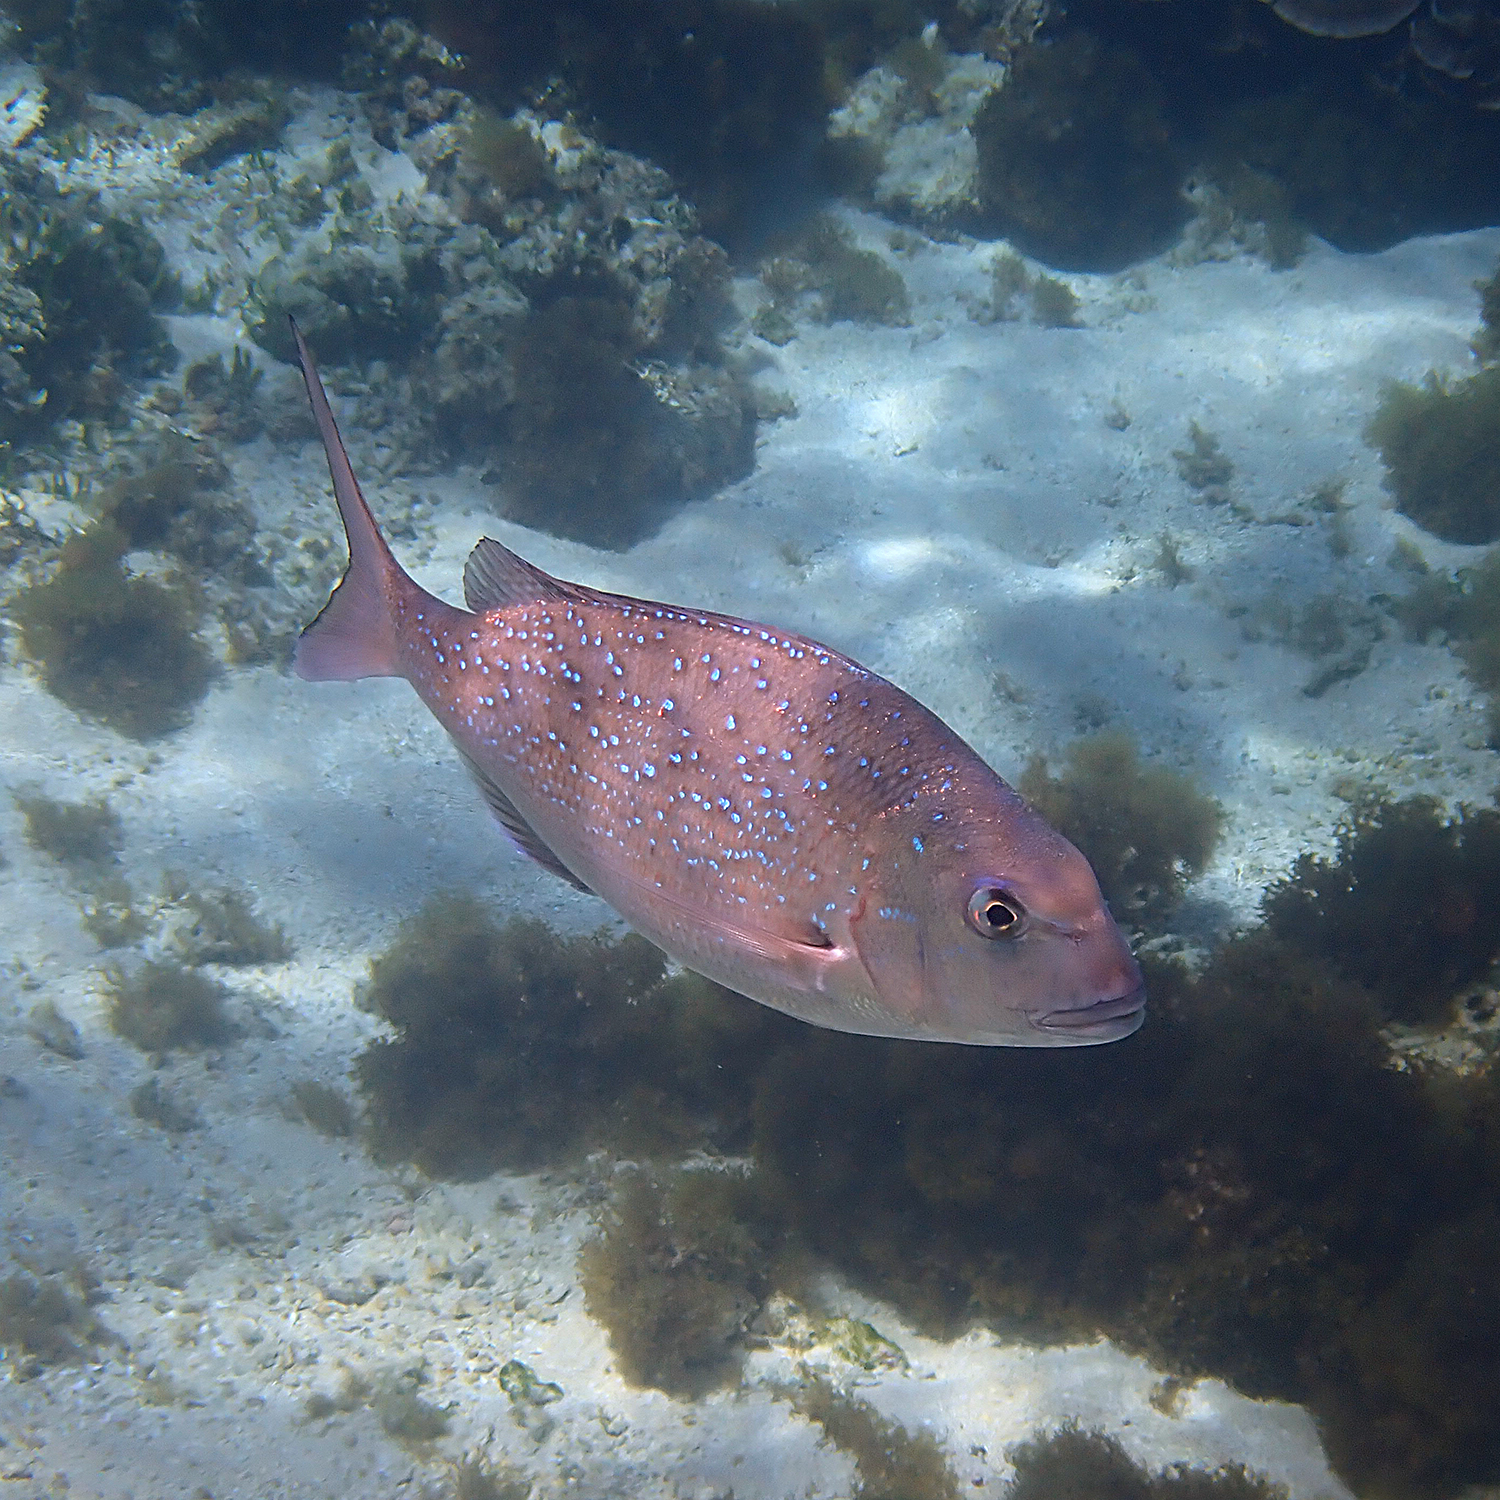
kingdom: Animalia
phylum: Chordata
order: Perciformes
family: Sparidae
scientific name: Sparidae
